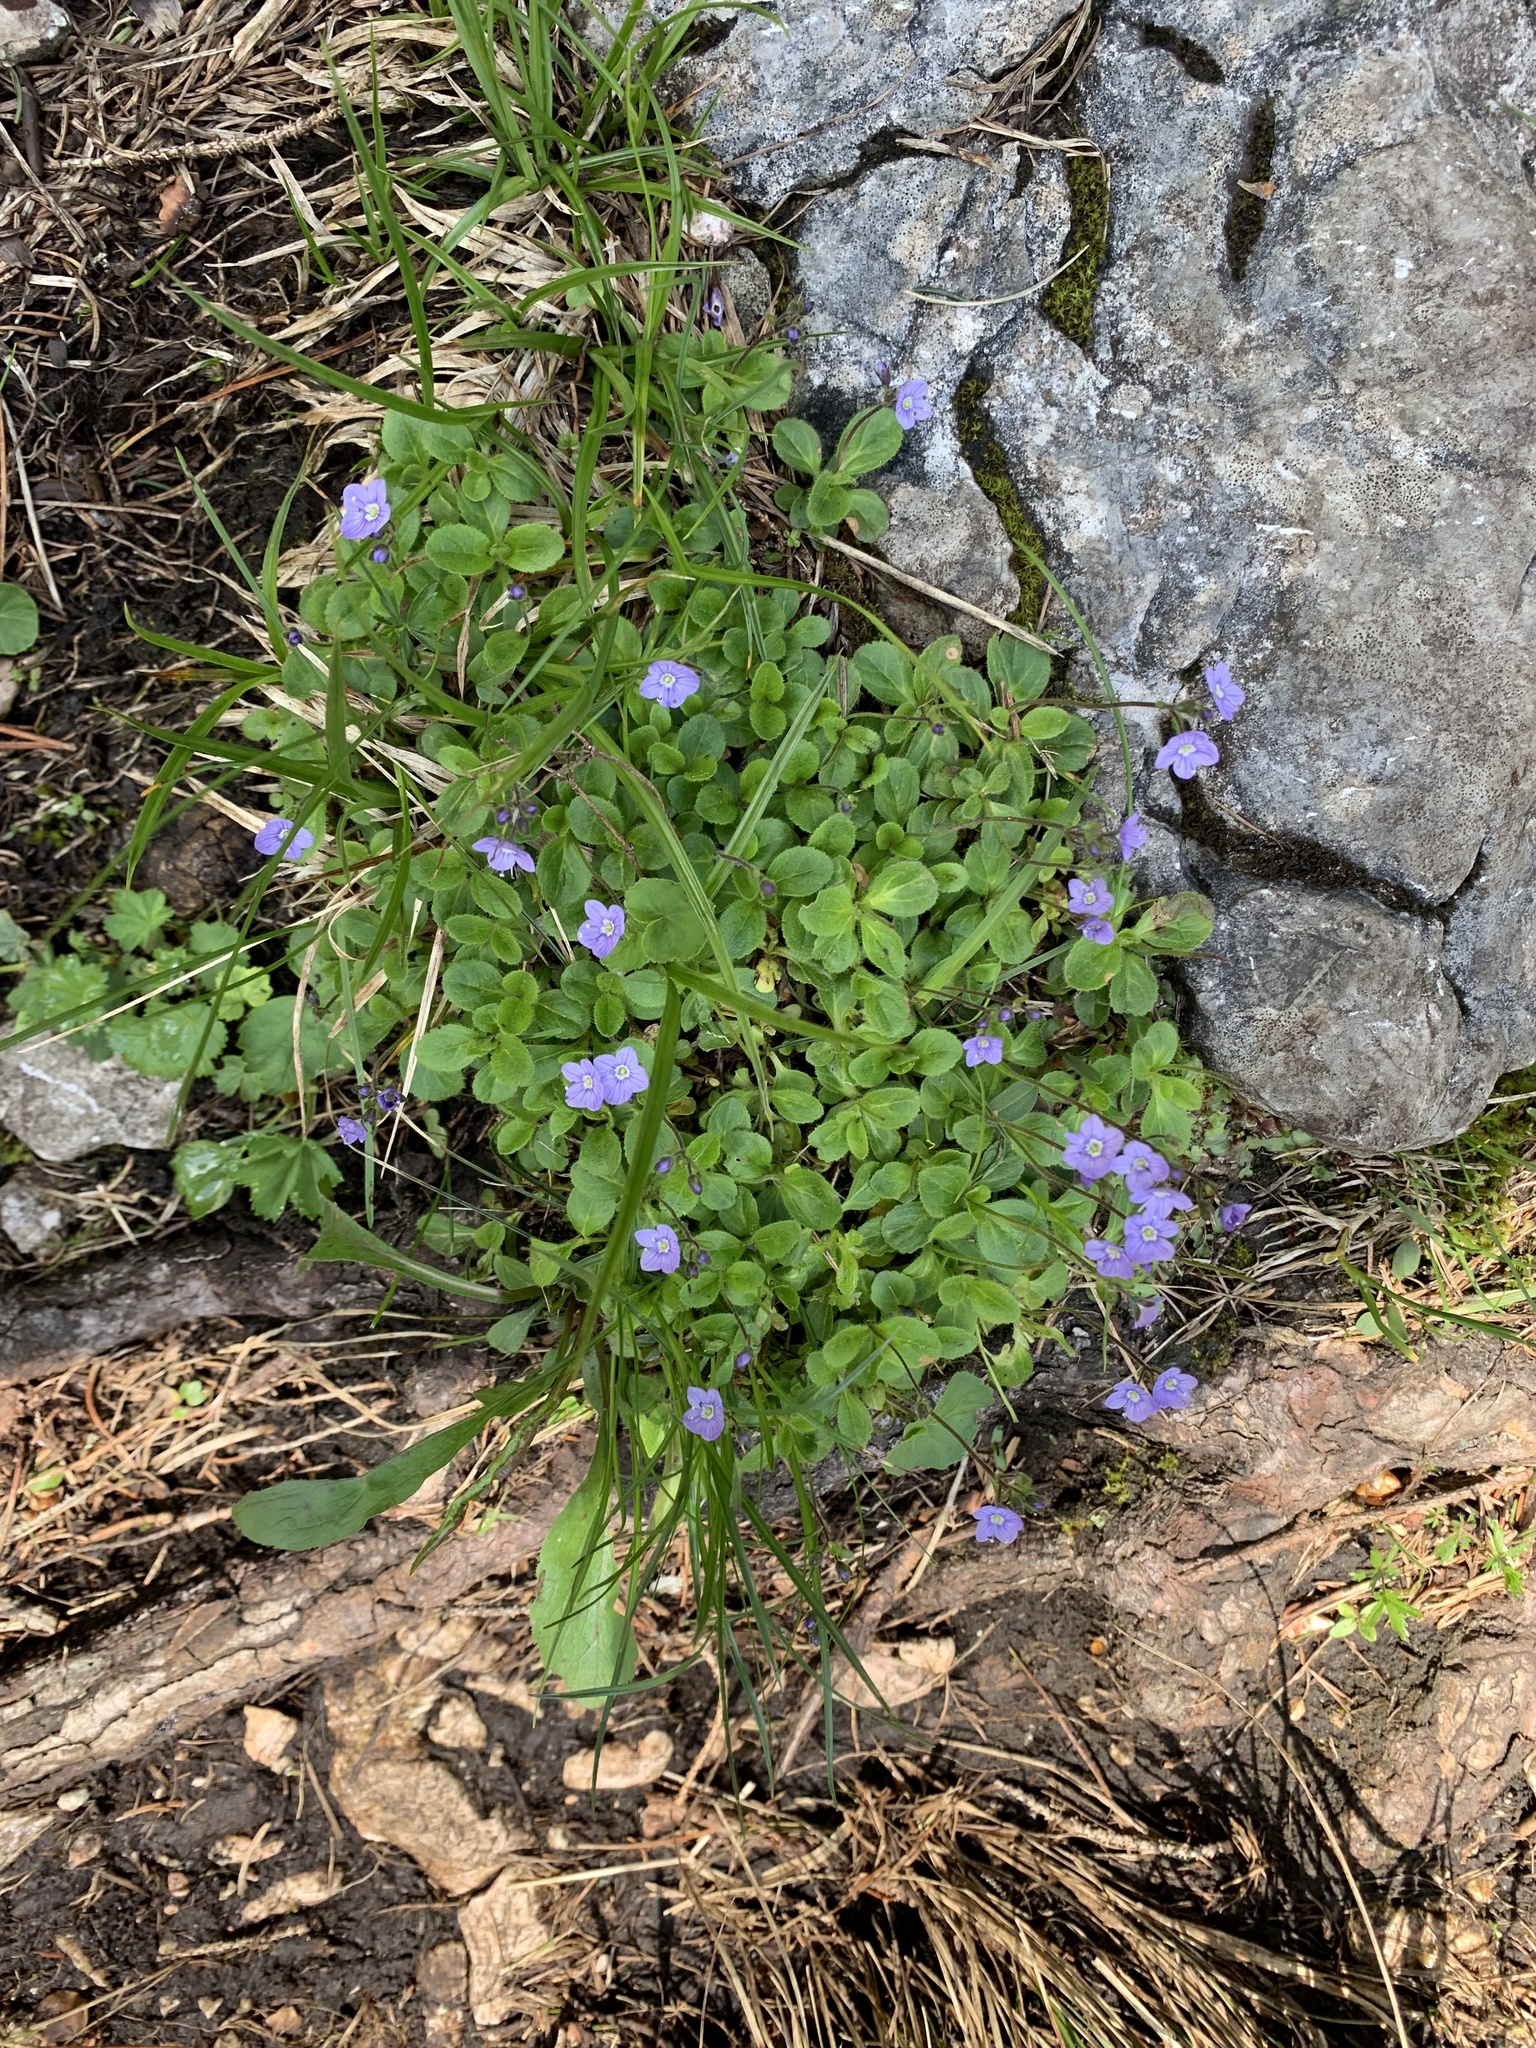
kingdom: Plantae
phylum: Tracheophyta
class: Magnoliopsida
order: Lamiales
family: Plantaginaceae
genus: Veronica
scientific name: Veronica aphylla
